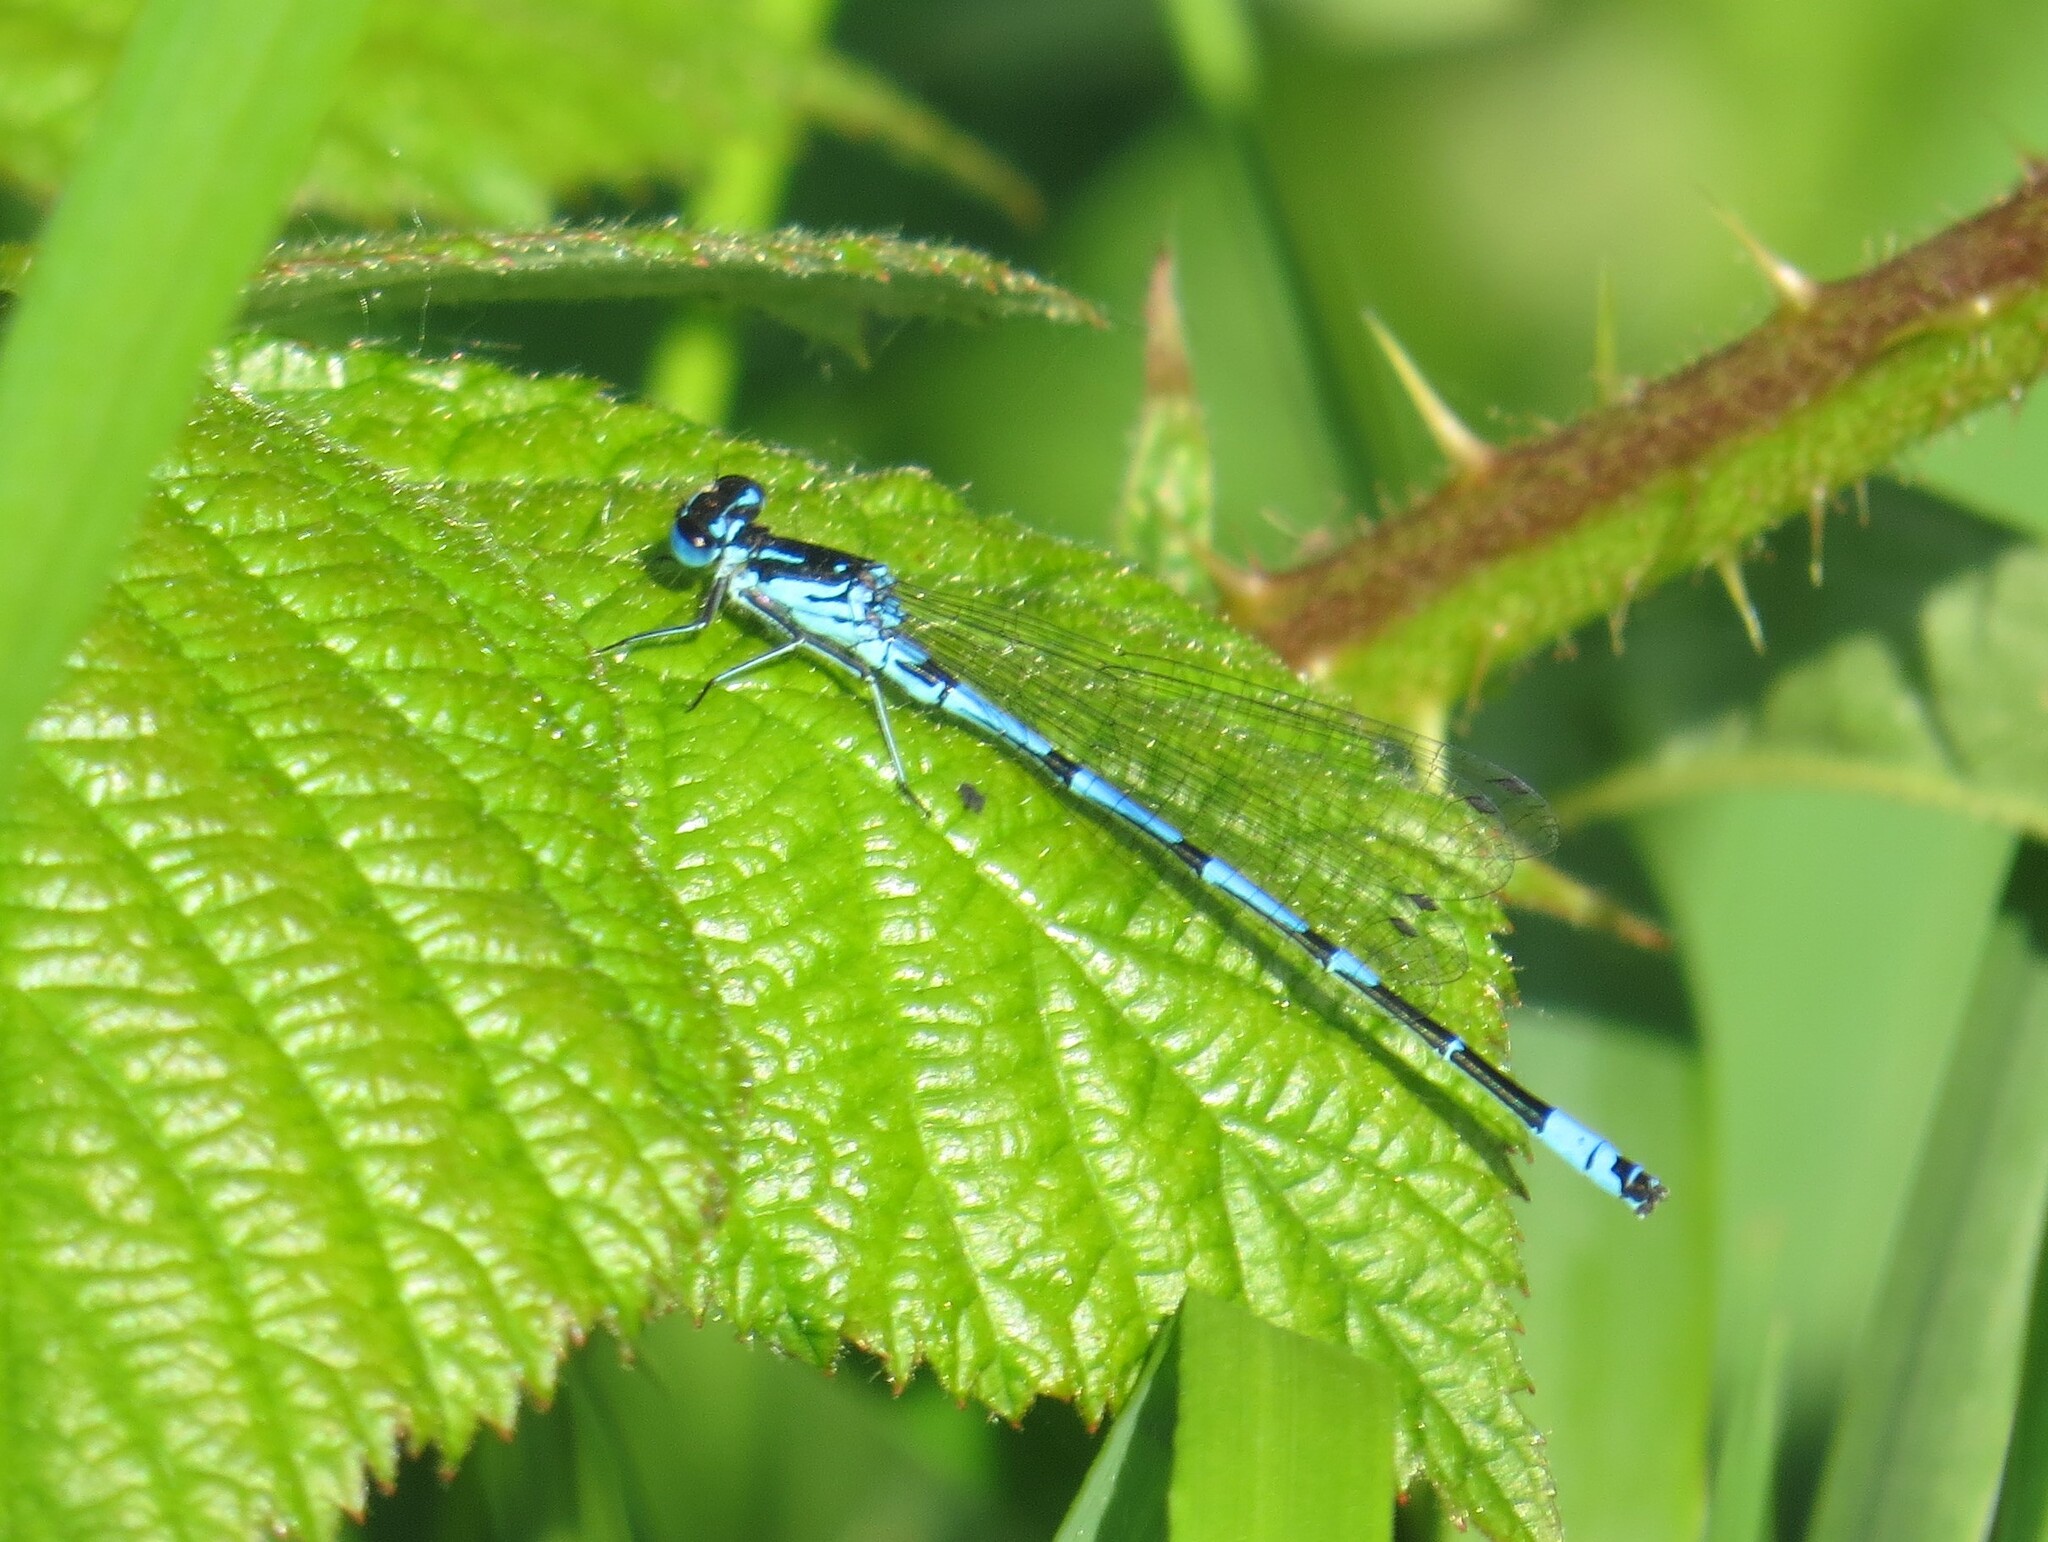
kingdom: Animalia
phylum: Arthropoda
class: Insecta
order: Odonata
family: Coenagrionidae
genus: Coenagrion
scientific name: Coenagrion pulchellum
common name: Variable bluet
